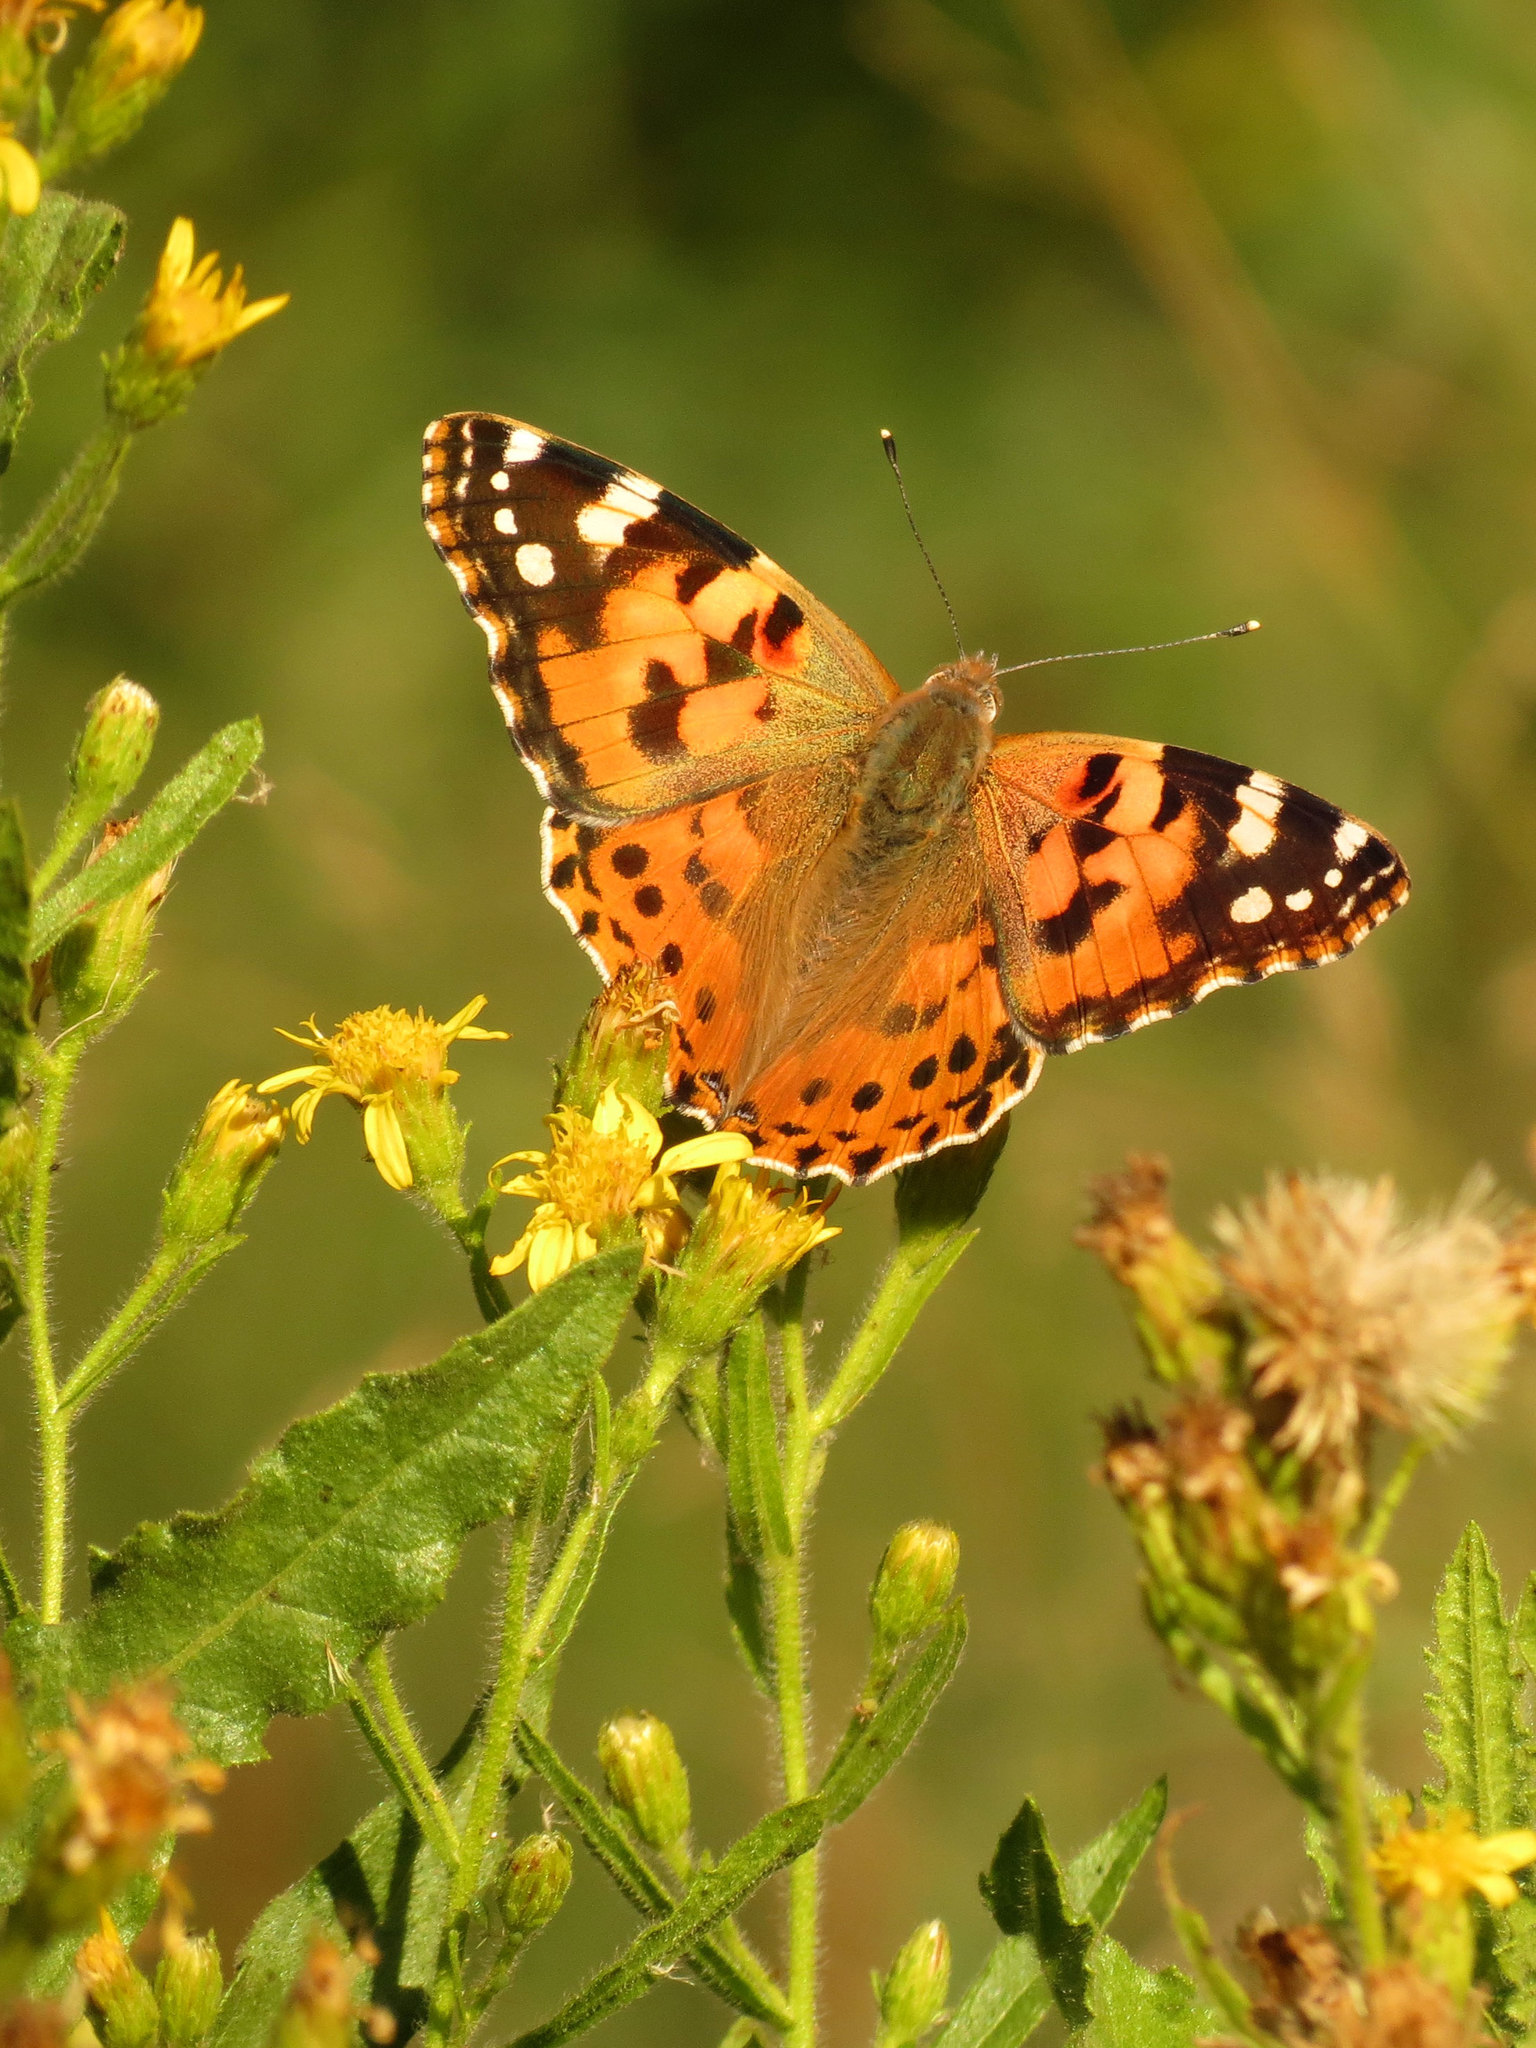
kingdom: Animalia
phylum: Arthropoda
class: Insecta
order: Lepidoptera
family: Nymphalidae
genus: Vanessa
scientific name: Vanessa cardui
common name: Painted lady
